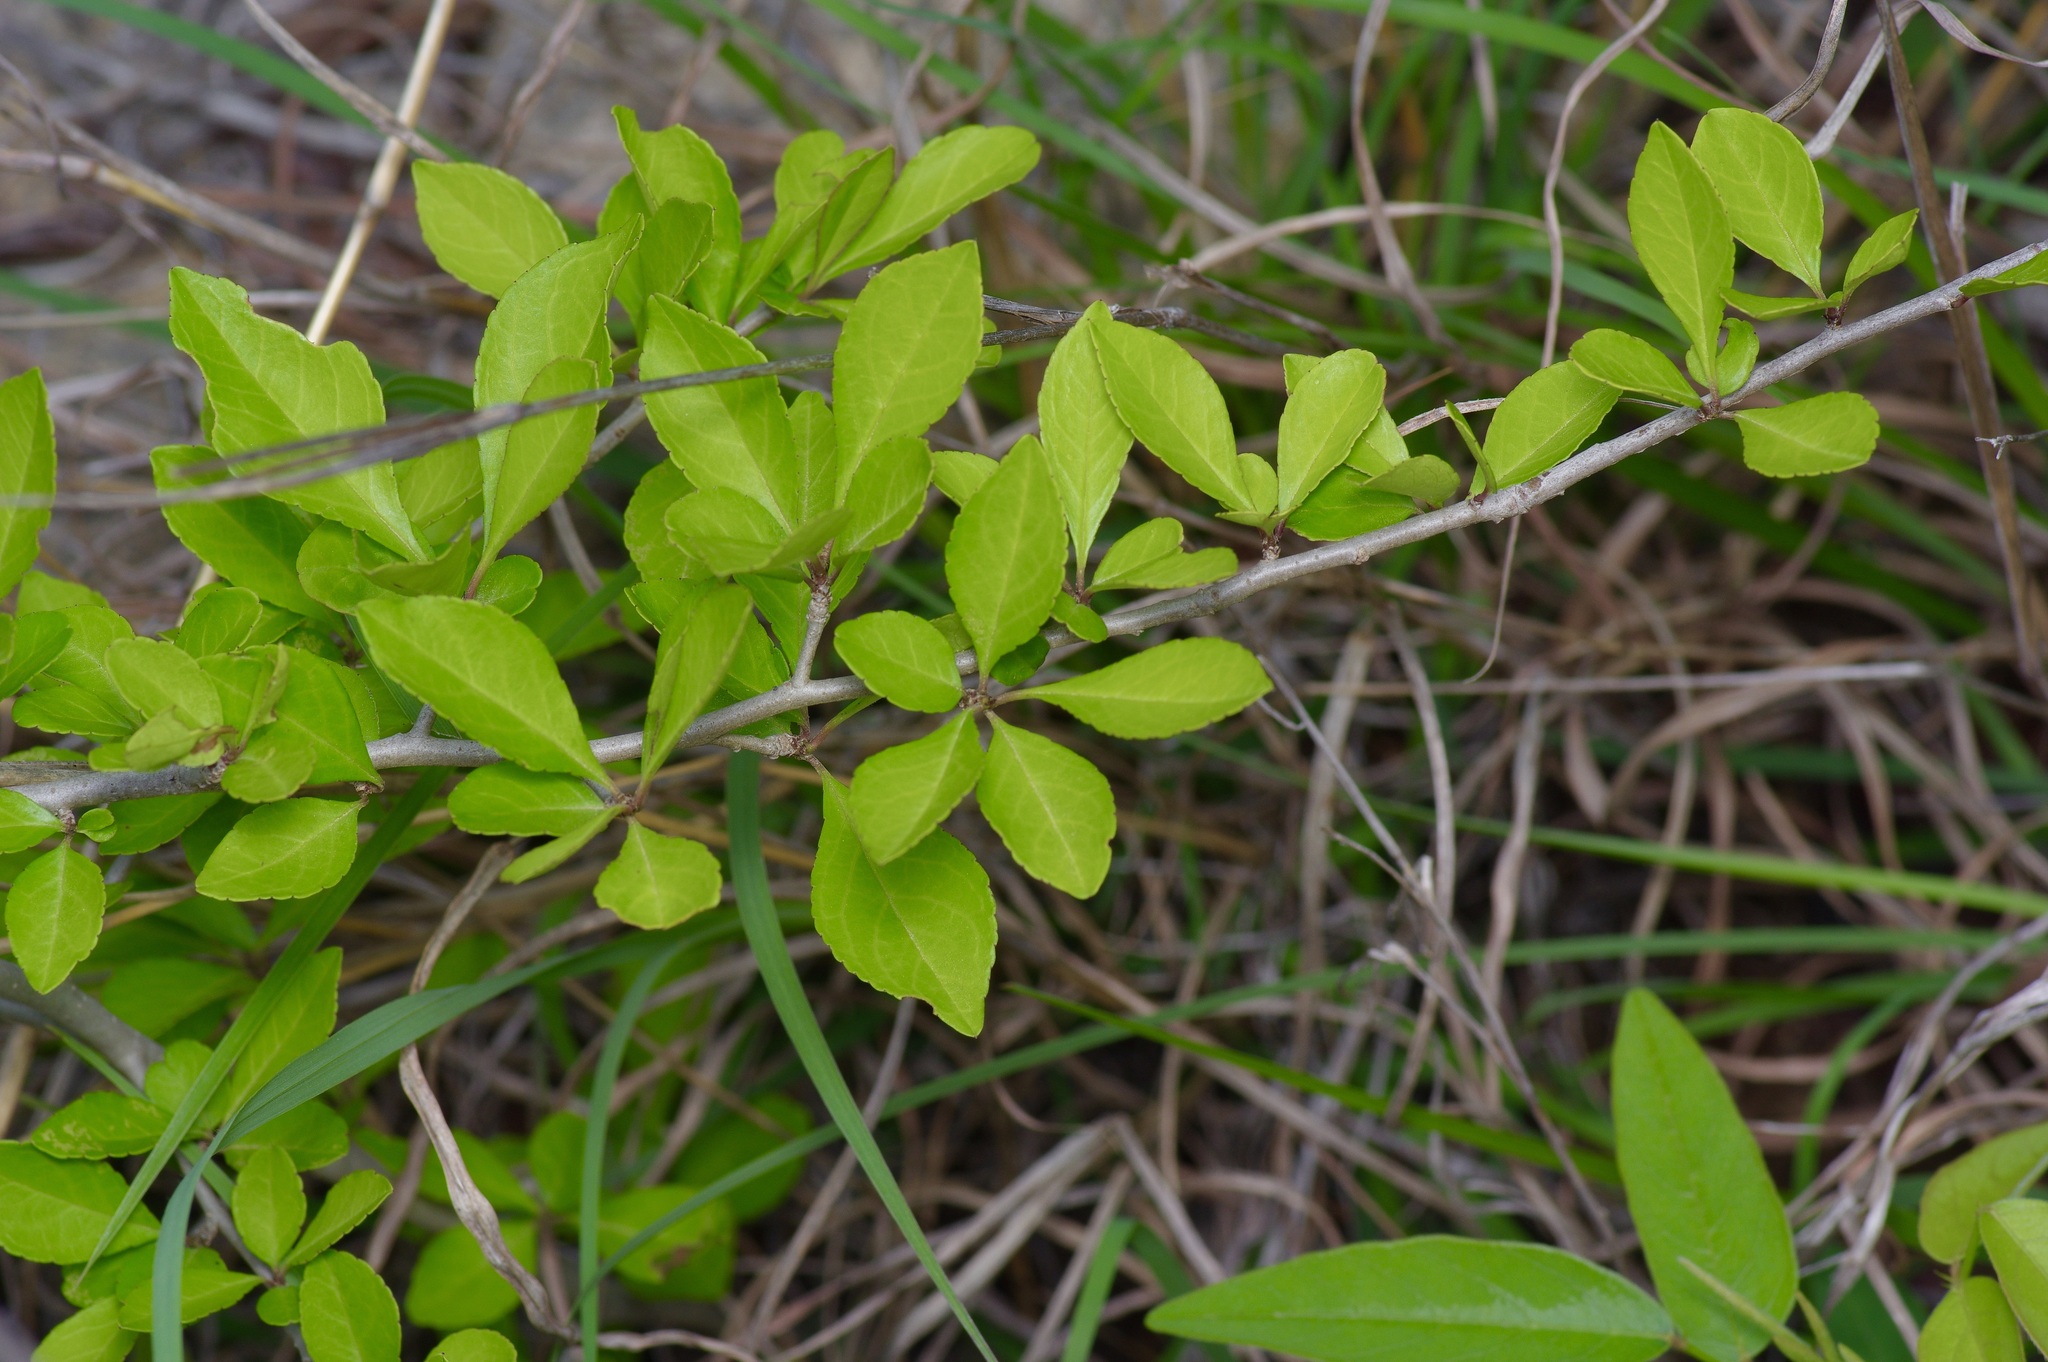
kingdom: Plantae
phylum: Tracheophyta
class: Magnoliopsida
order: Aquifoliales
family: Aquifoliaceae
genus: Ilex
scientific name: Ilex decidua
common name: Possum-haw
